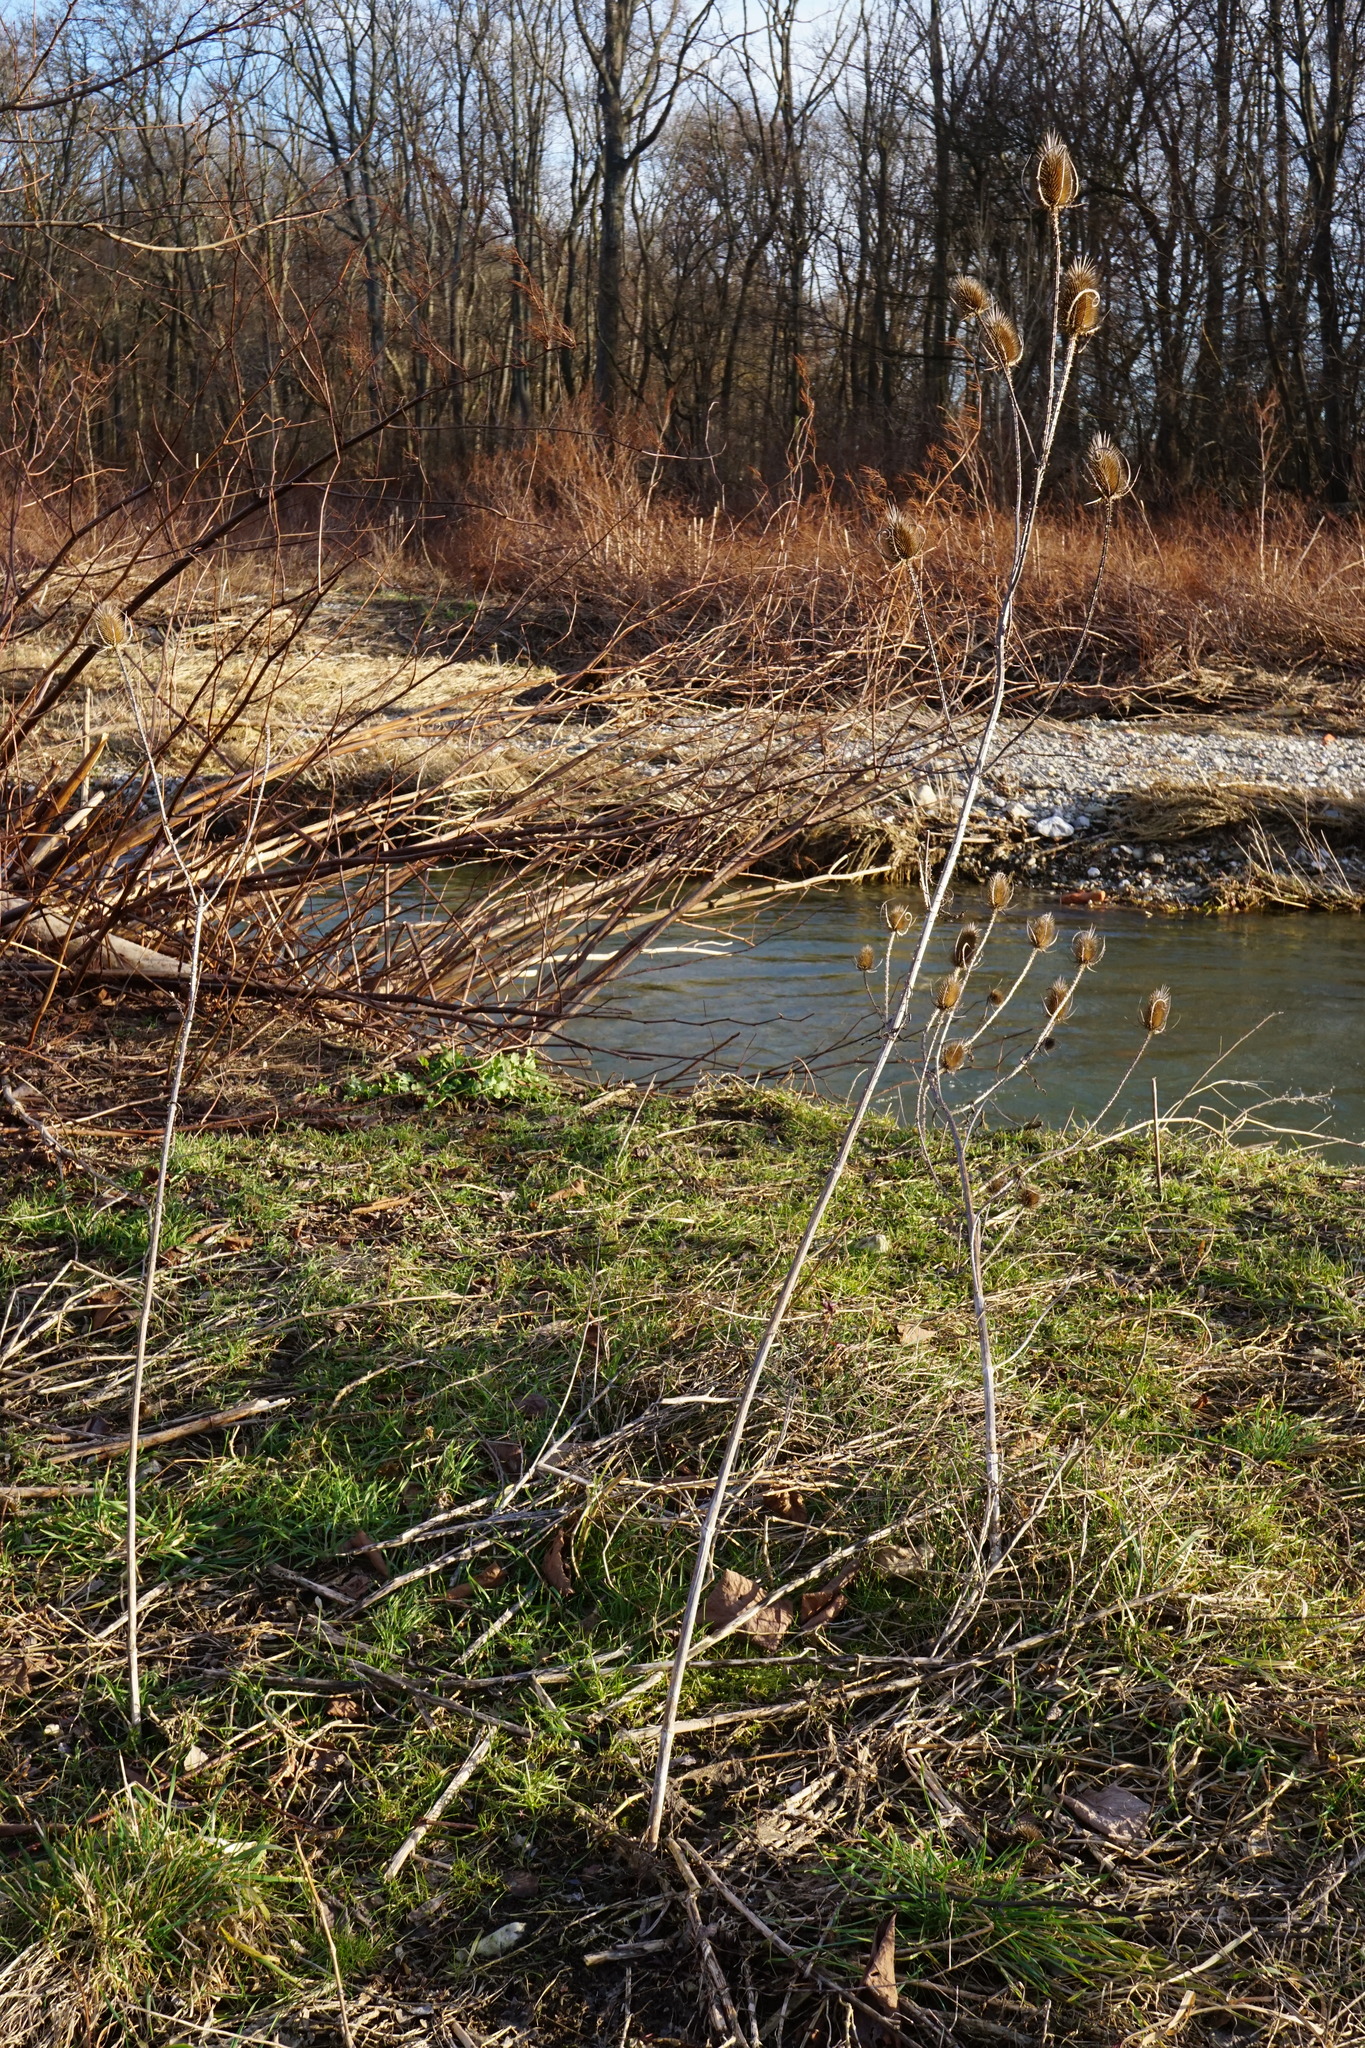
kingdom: Plantae
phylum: Tracheophyta
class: Magnoliopsida
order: Dipsacales
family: Caprifoliaceae
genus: Dipsacus
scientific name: Dipsacus fullonum
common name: Teasel
